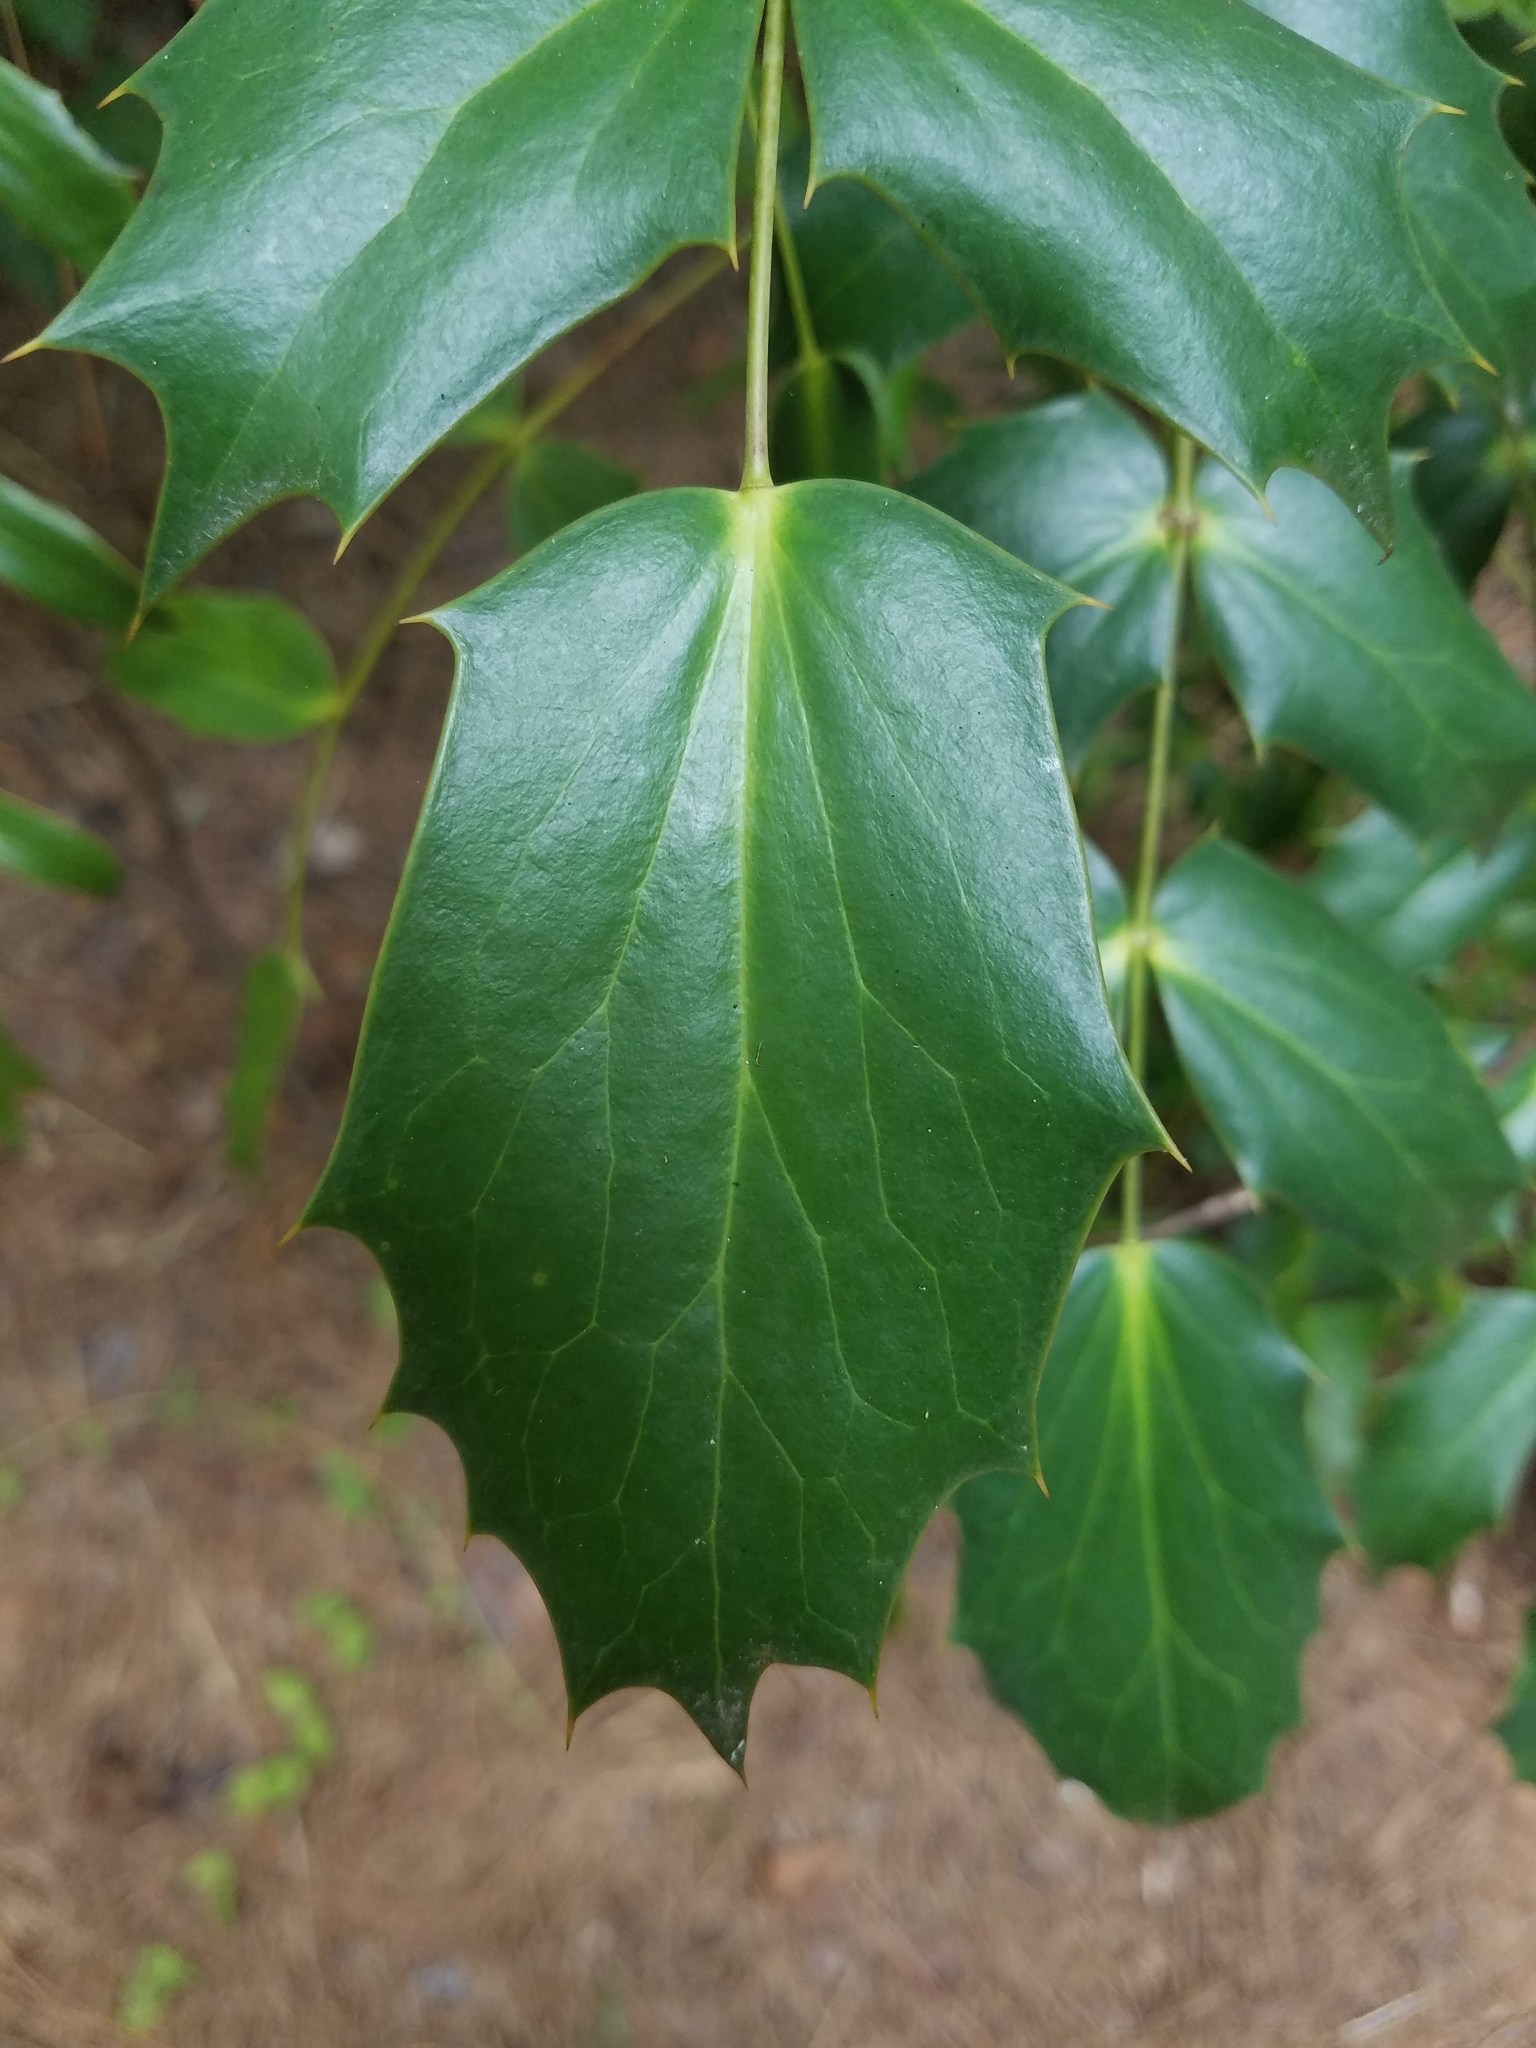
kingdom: Plantae
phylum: Tracheophyta
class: Magnoliopsida
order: Ranunculales
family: Berberidaceae
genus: Mahonia
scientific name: Mahonia bealei
